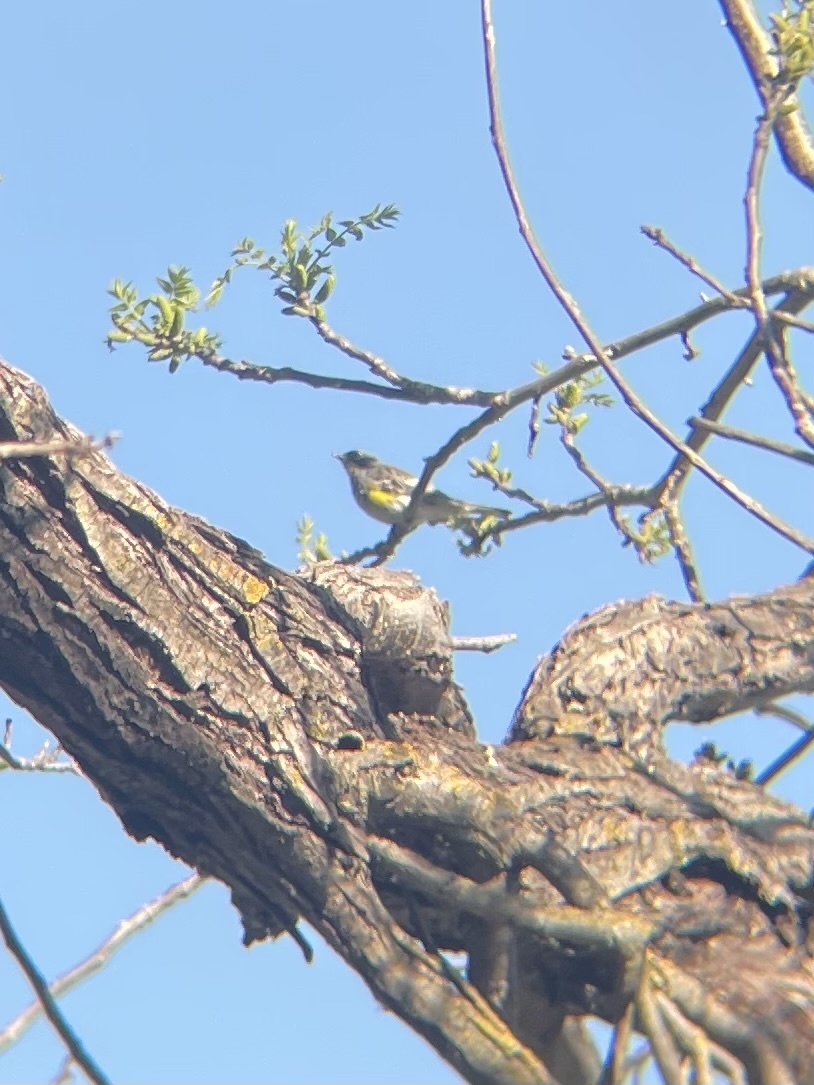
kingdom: Animalia
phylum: Chordata
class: Aves
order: Passeriformes
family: Parulidae
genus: Setophaga
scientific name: Setophaga coronata
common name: Myrtle warbler
